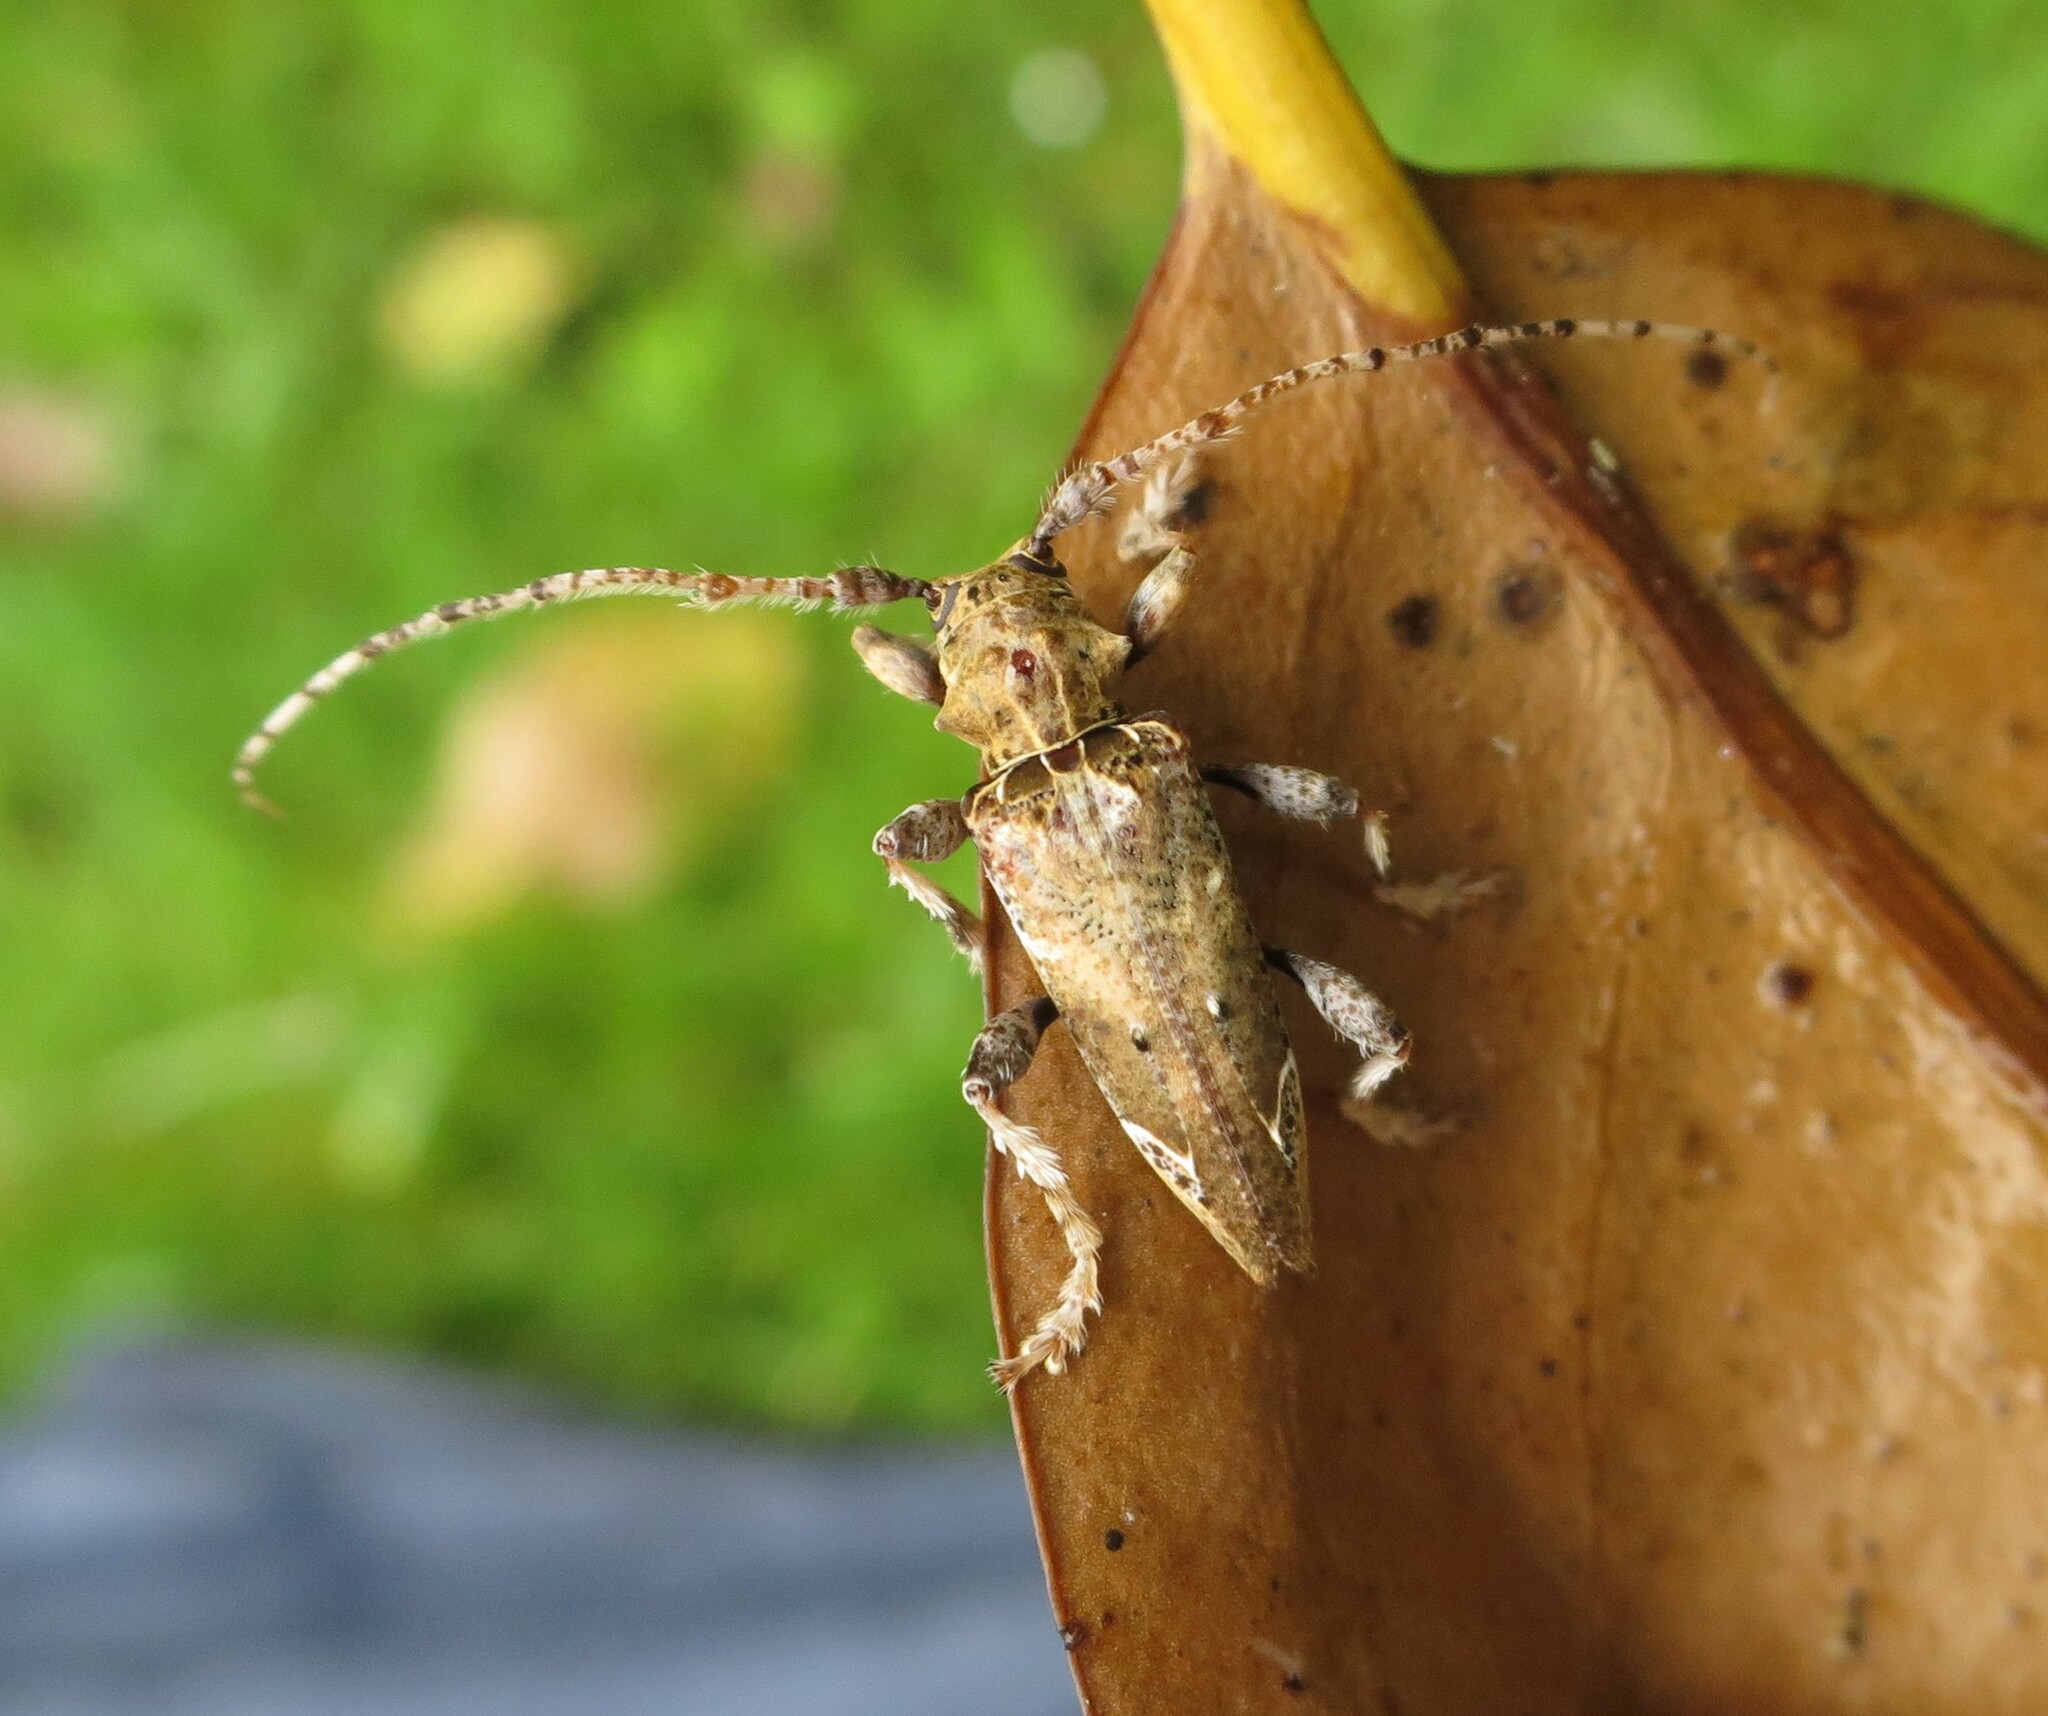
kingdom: Animalia
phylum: Arthropoda
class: Insecta
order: Coleoptera
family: Cerambycidae
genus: Tetrorea
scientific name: Tetrorea cilipes
